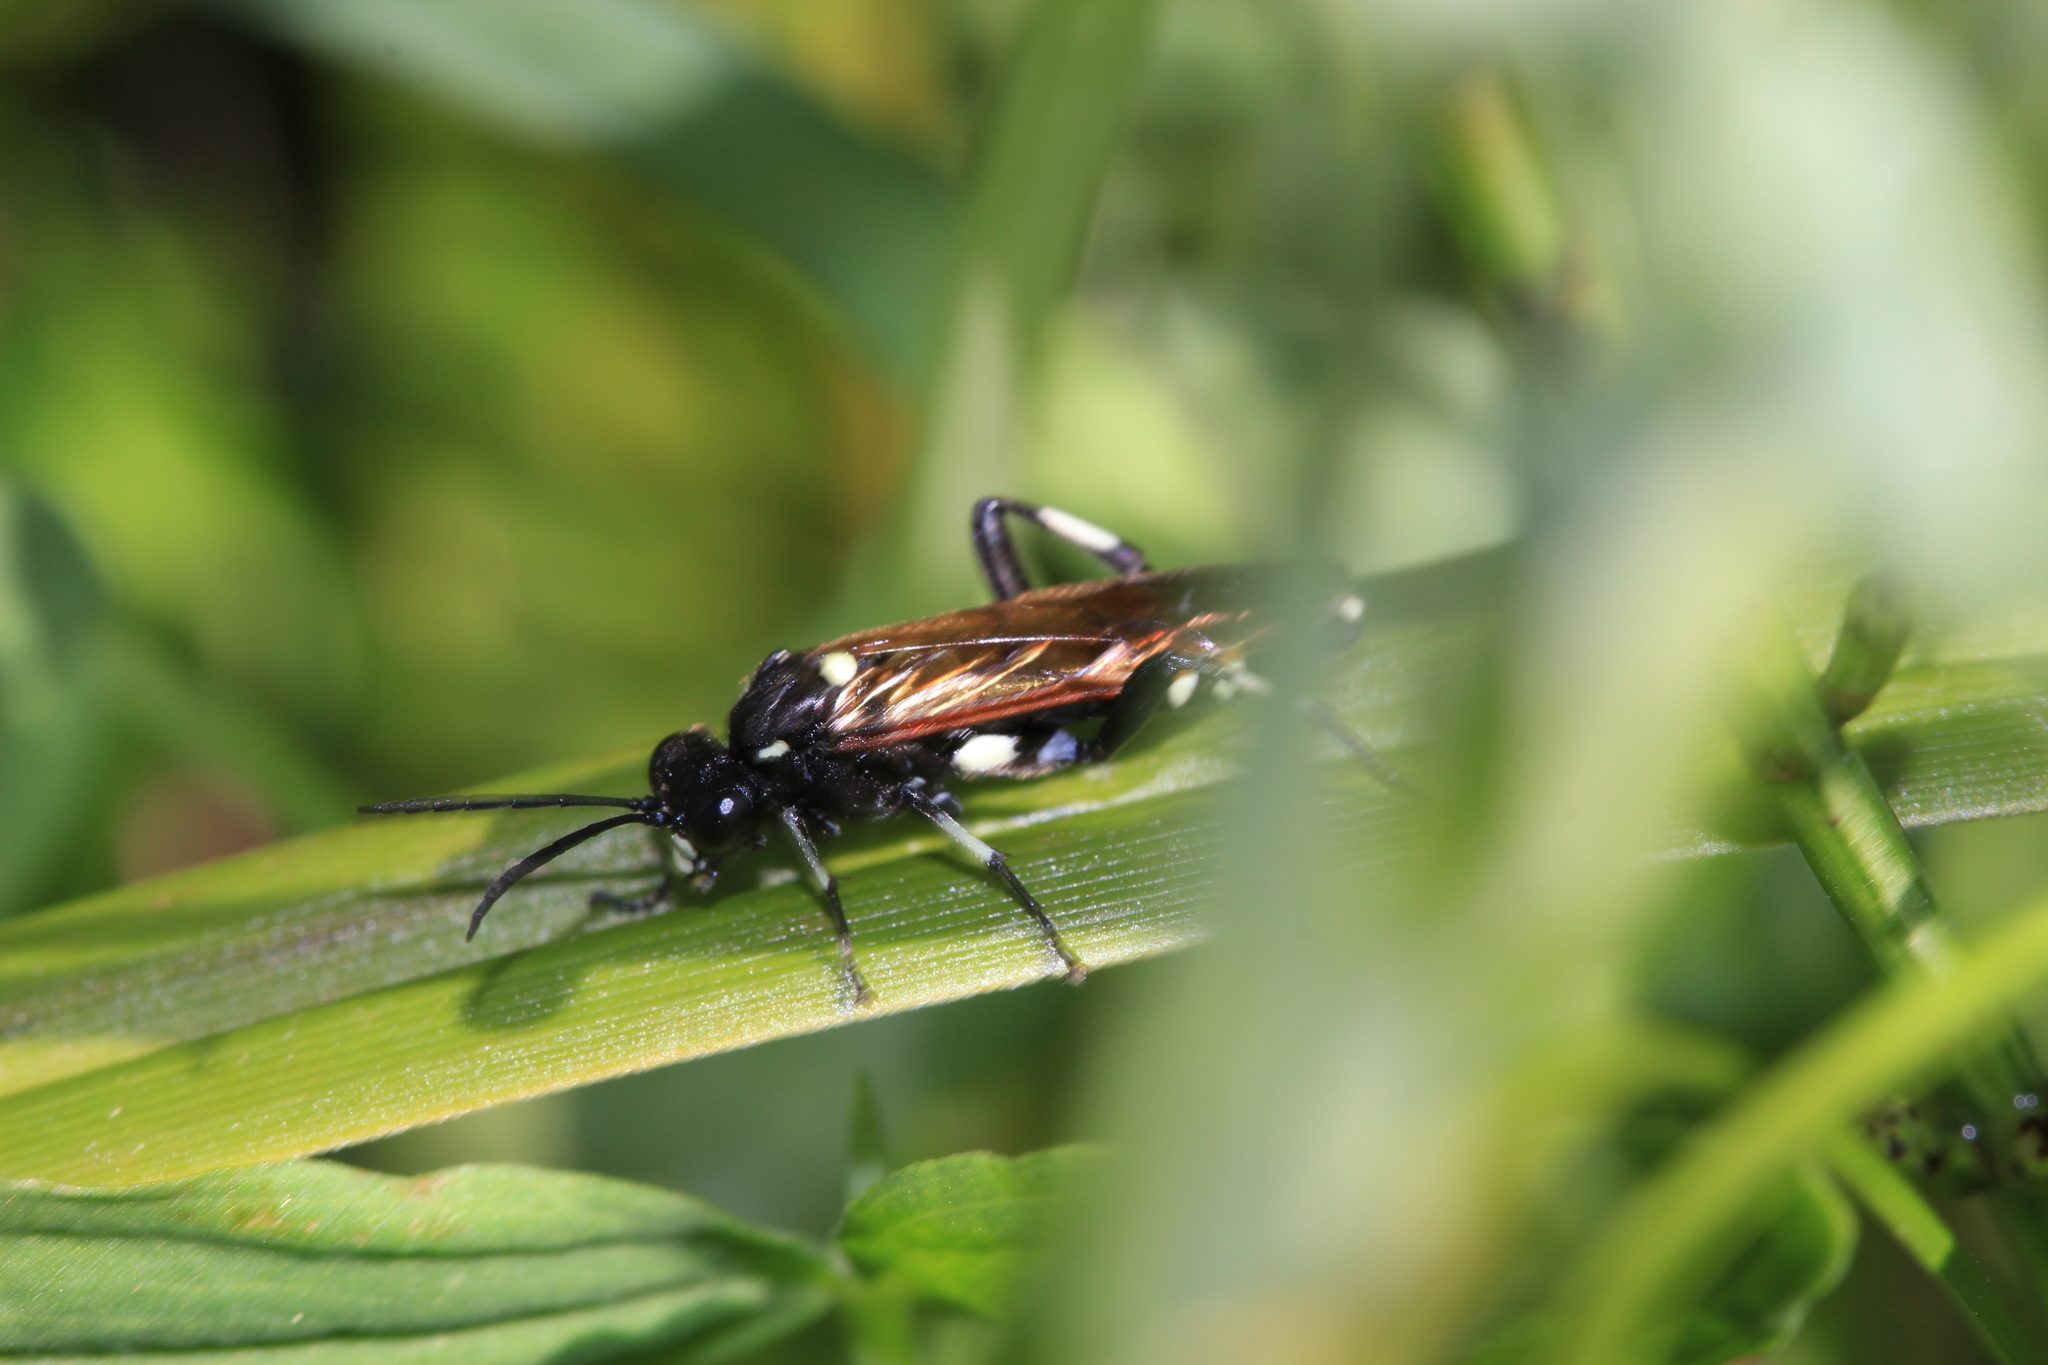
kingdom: Animalia
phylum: Arthropoda
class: Insecta
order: Hymenoptera
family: Tenthredinidae
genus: Macrophya
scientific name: Macrophya duodecimpunctata
